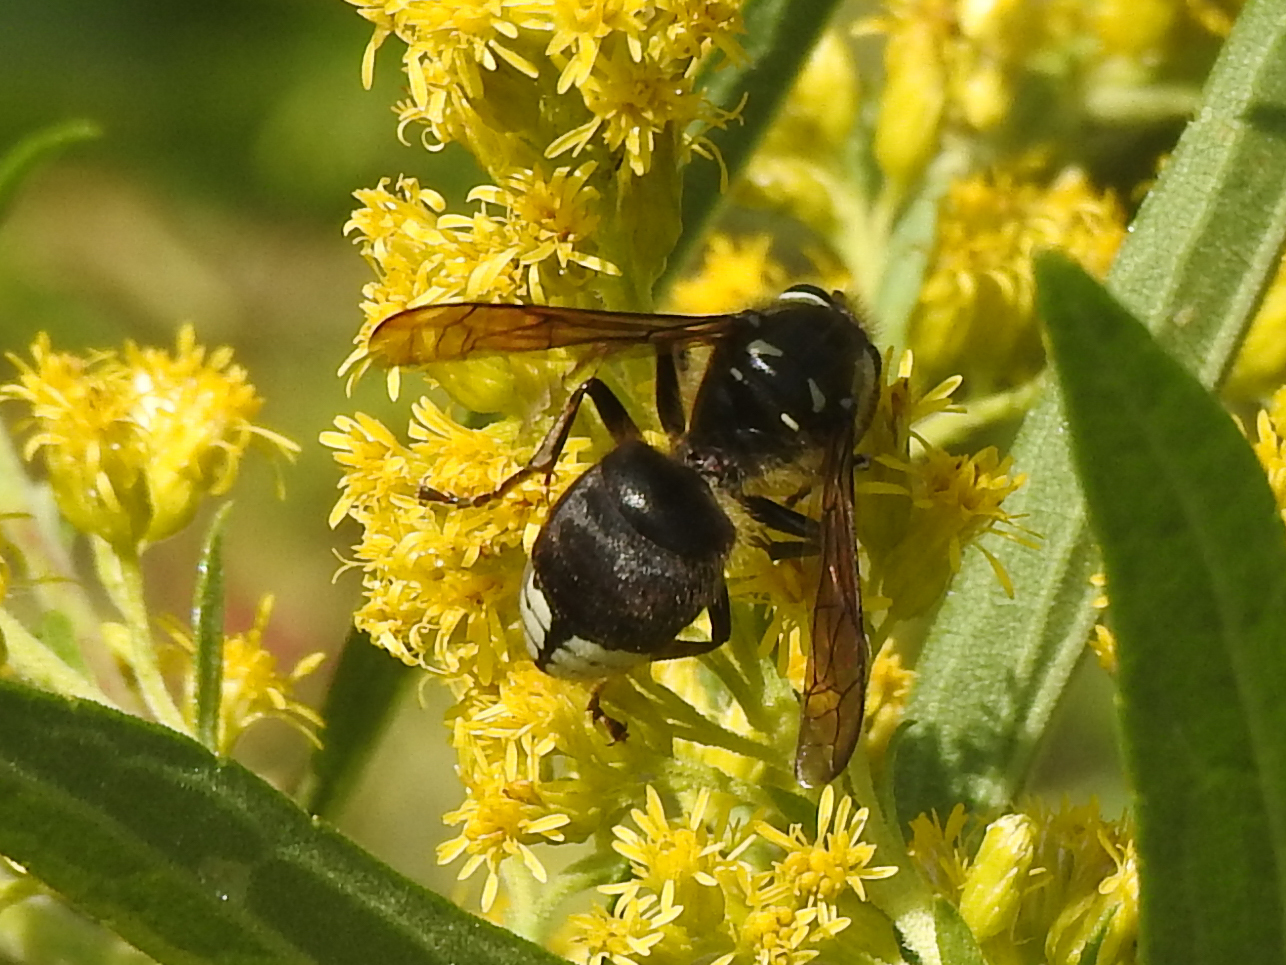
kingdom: Animalia
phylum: Arthropoda
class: Insecta
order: Hymenoptera
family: Vespidae
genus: Dolichovespula
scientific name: Dolichovespula maculata
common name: Bald-faced hornet
